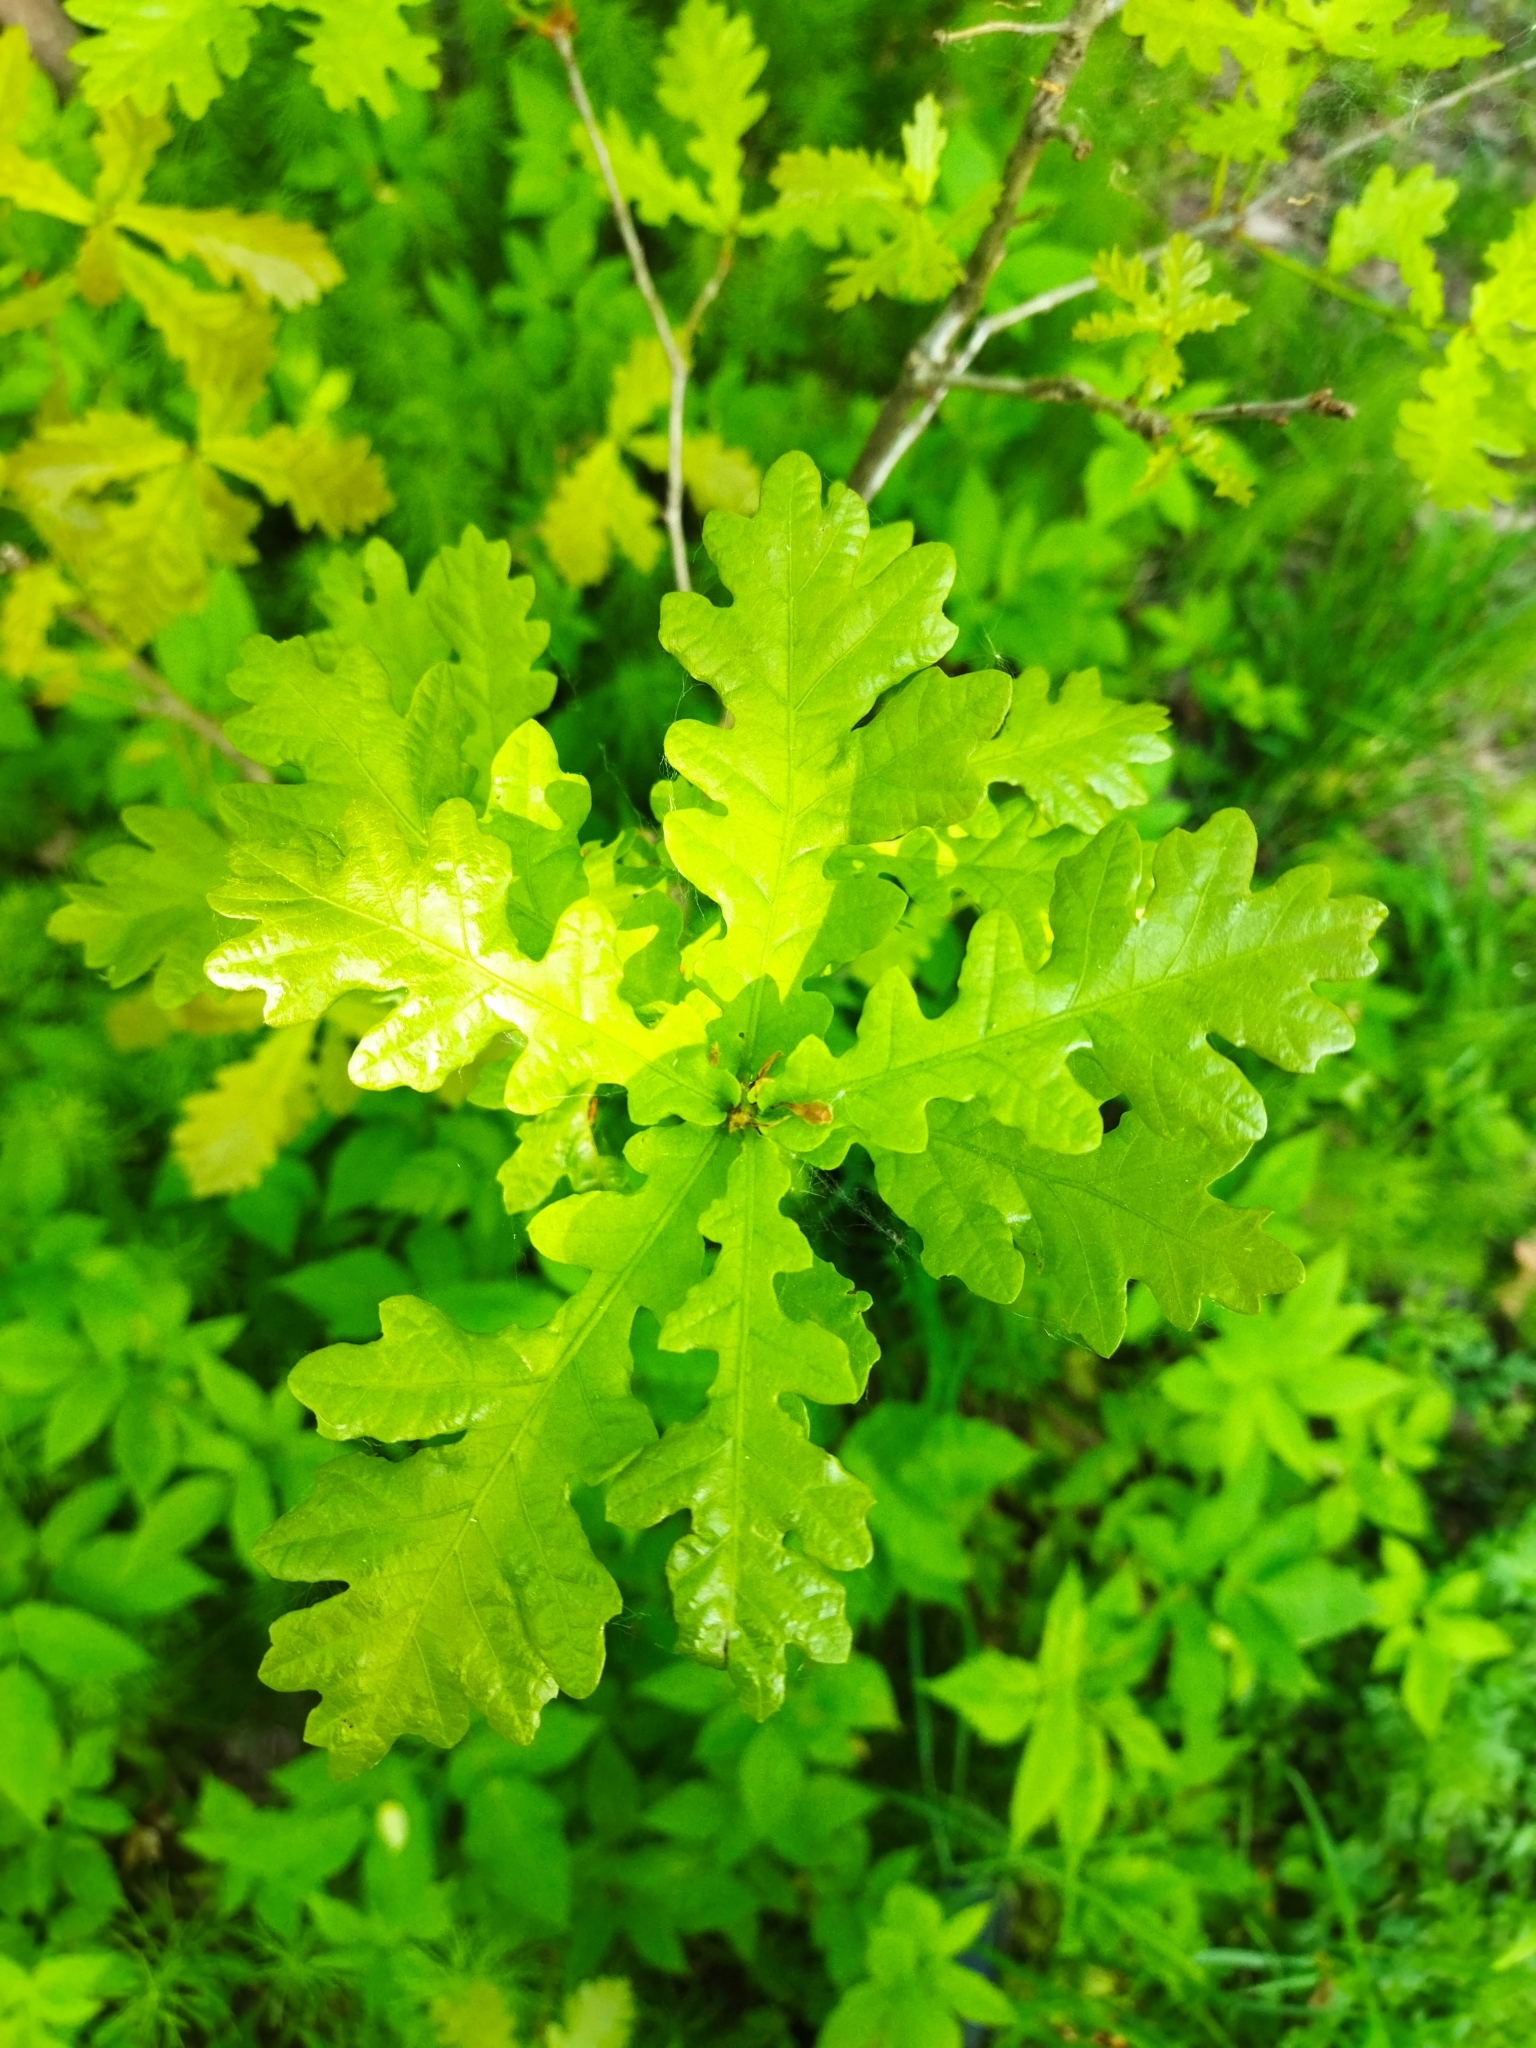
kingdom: Plantae
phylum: Tracheophyta
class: Magnoliopsida
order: Fagales
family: Fagaceae
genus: Quercus
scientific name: Quercus robur
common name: Pedunculate oak
